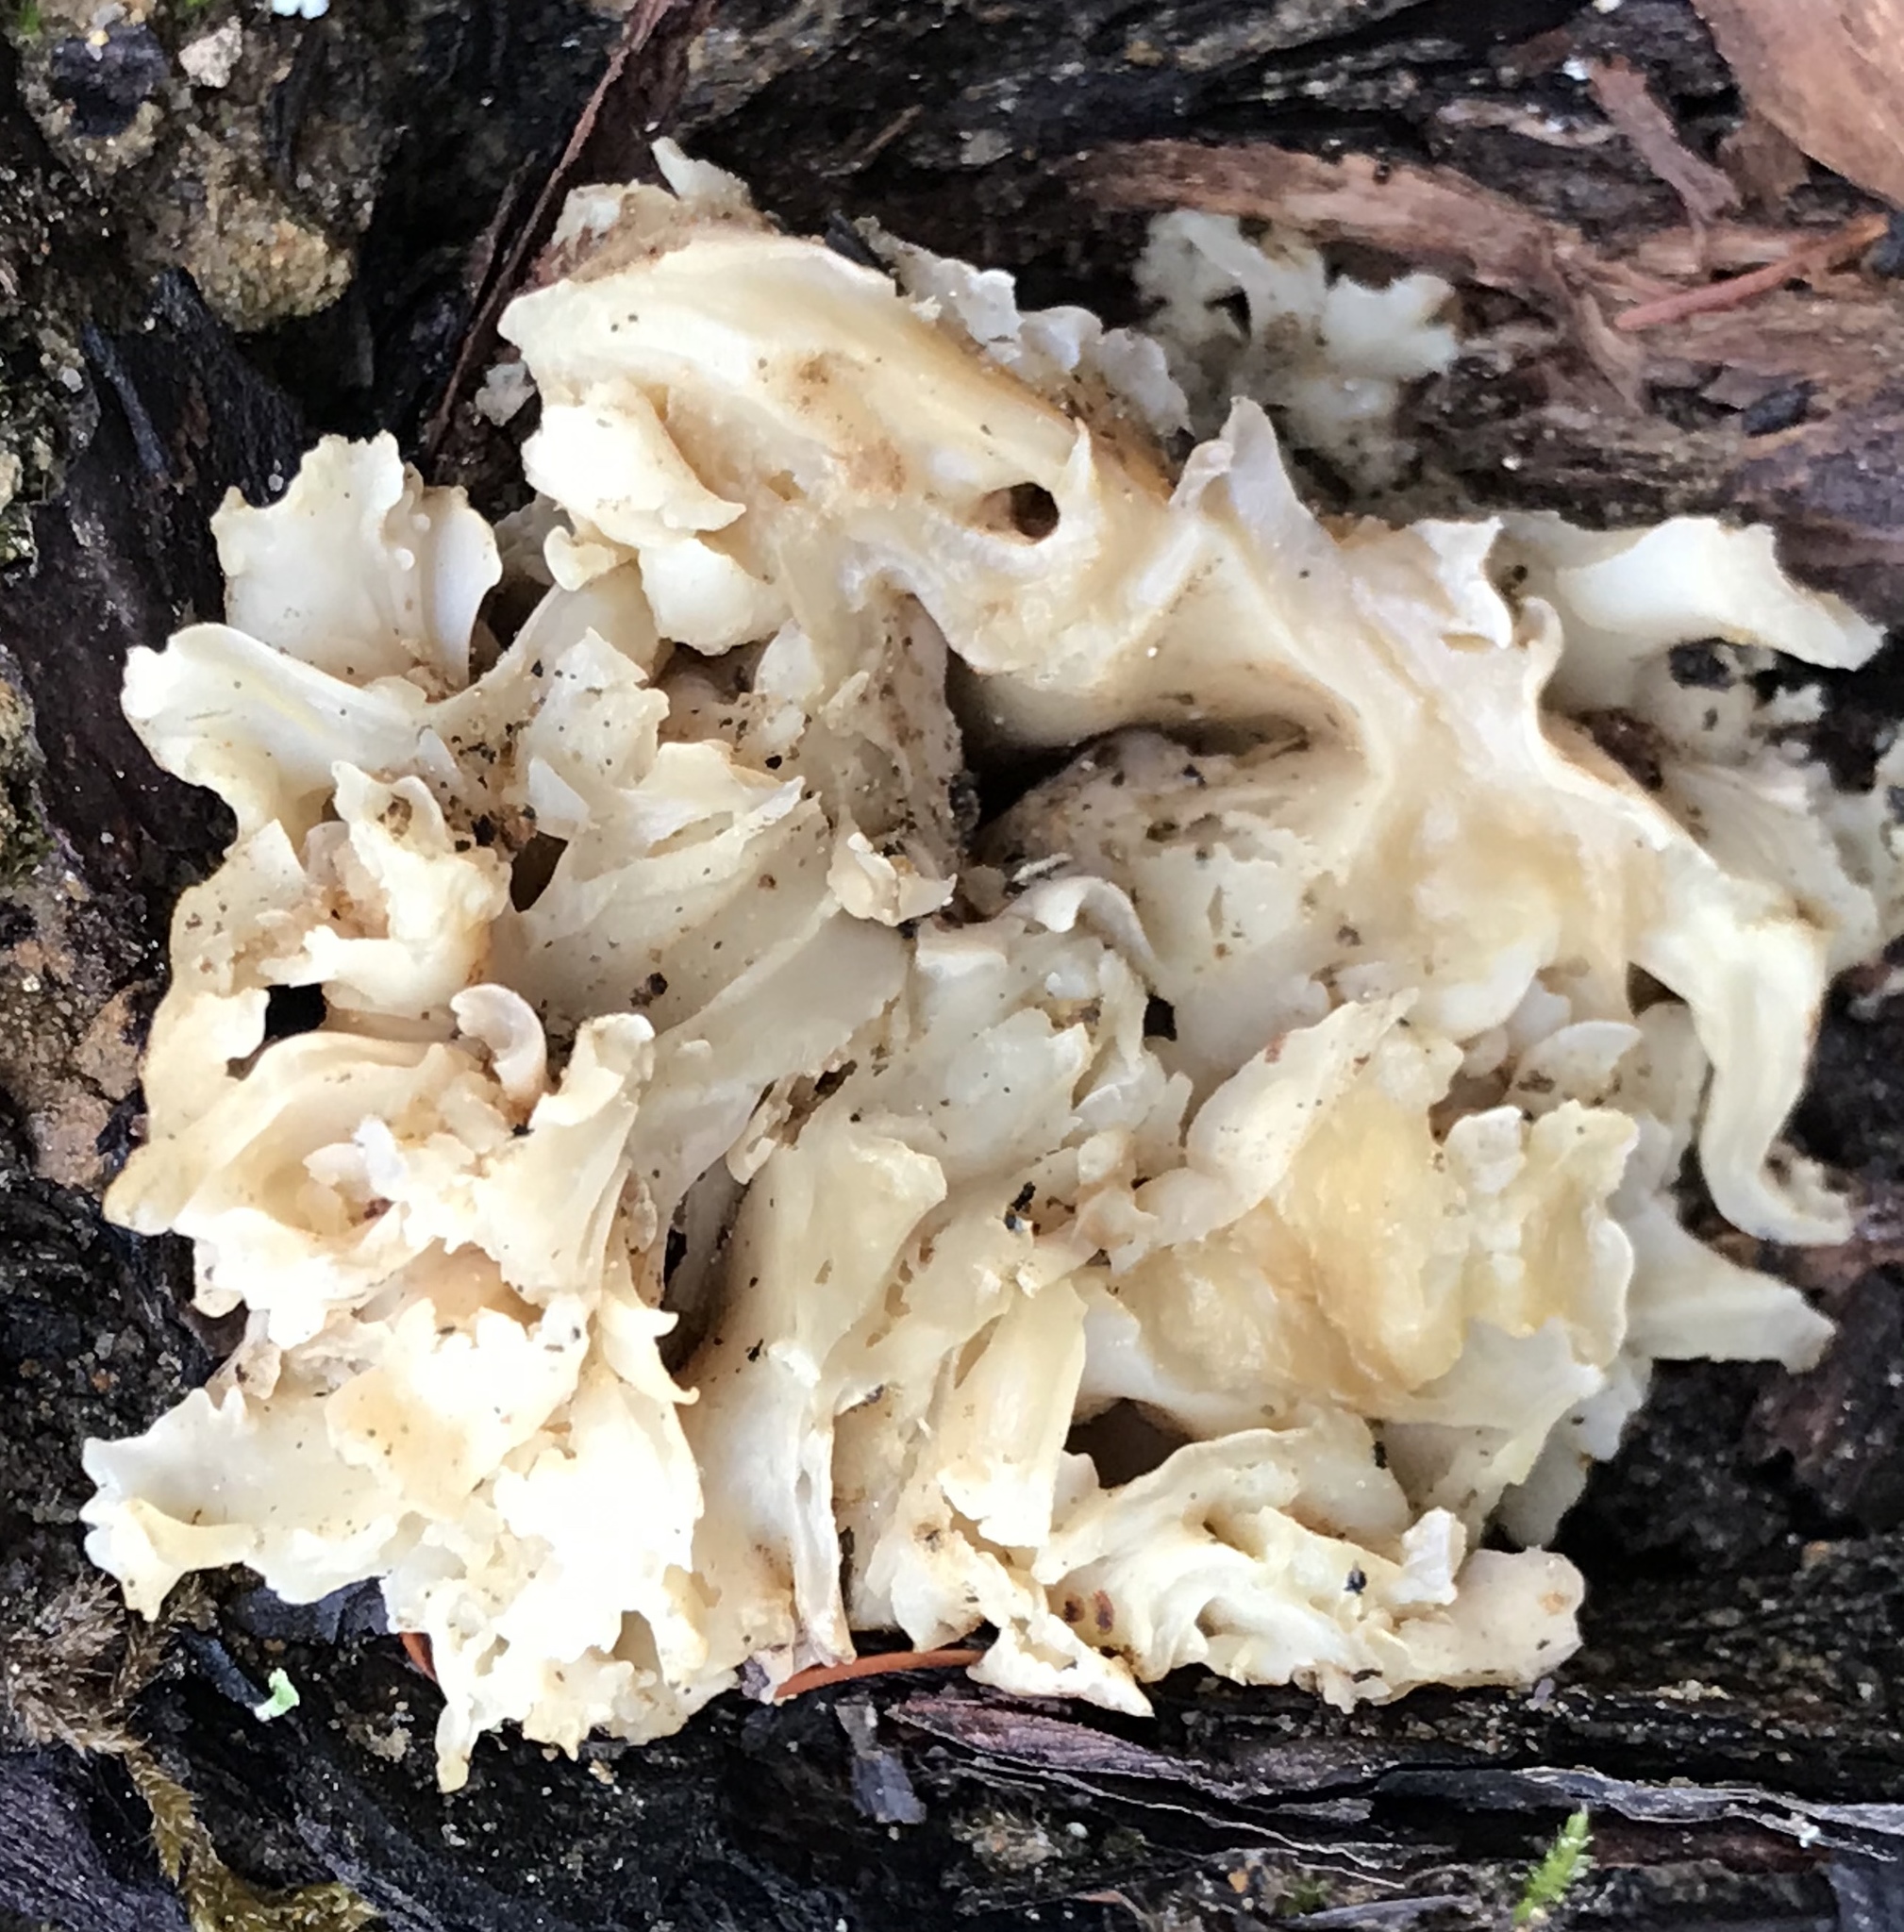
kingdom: Fungi
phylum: Basidiomycota
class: Agaricomycetes
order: Polyporales
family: Sparassidaceae
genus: Sparassis
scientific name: Sparassis radicata
